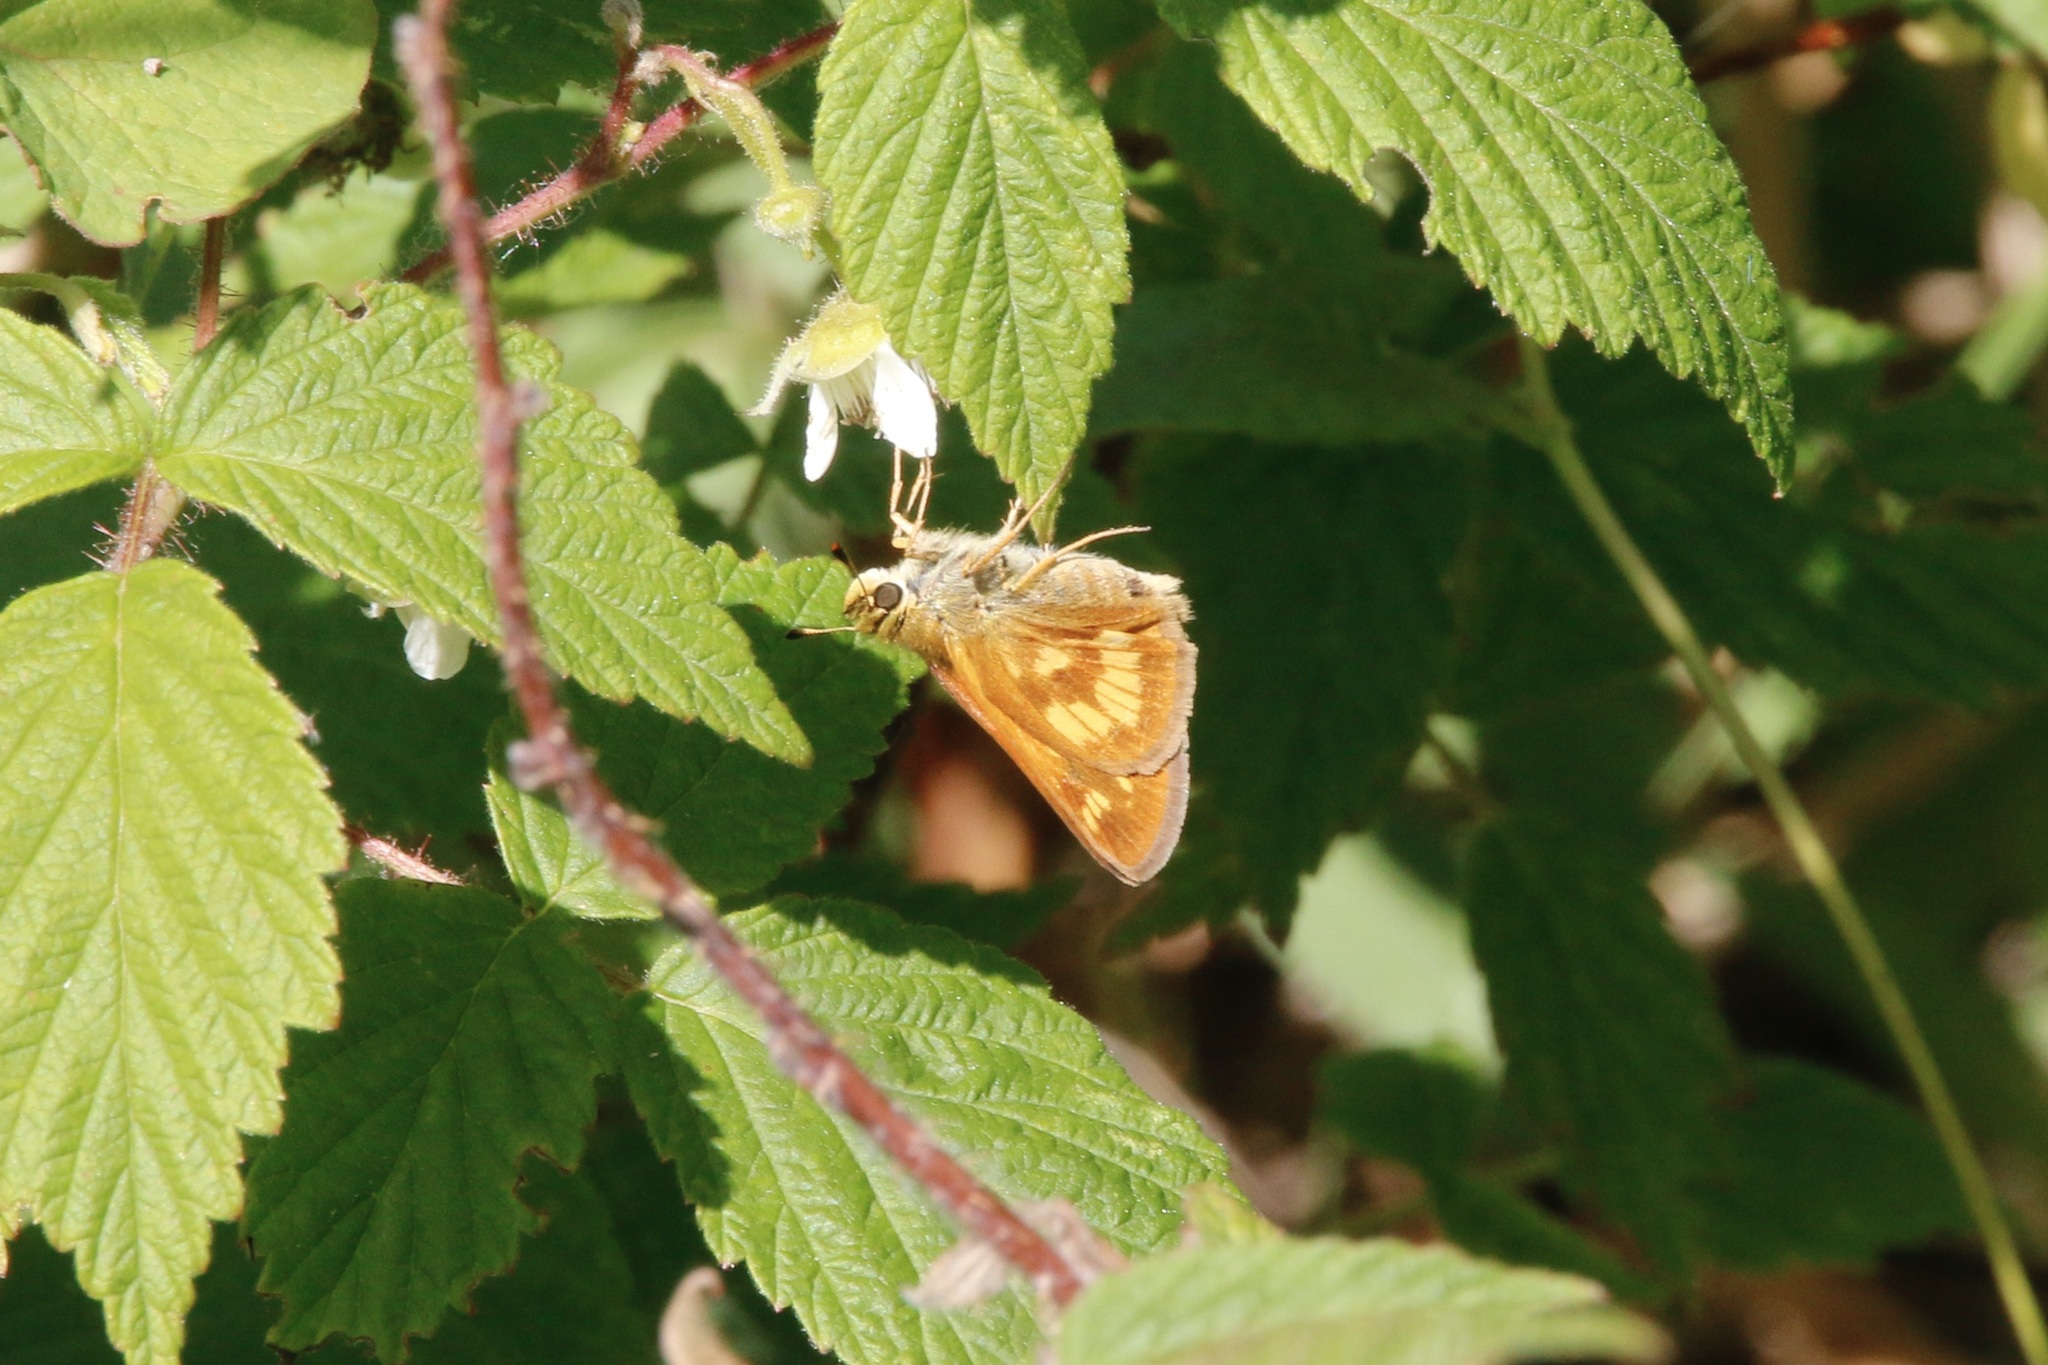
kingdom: Animalia
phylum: Arthropoda
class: Insecta
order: Lepidoptera
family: Hesperiidae
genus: Polites
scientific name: Polites mystic
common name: Long dash
